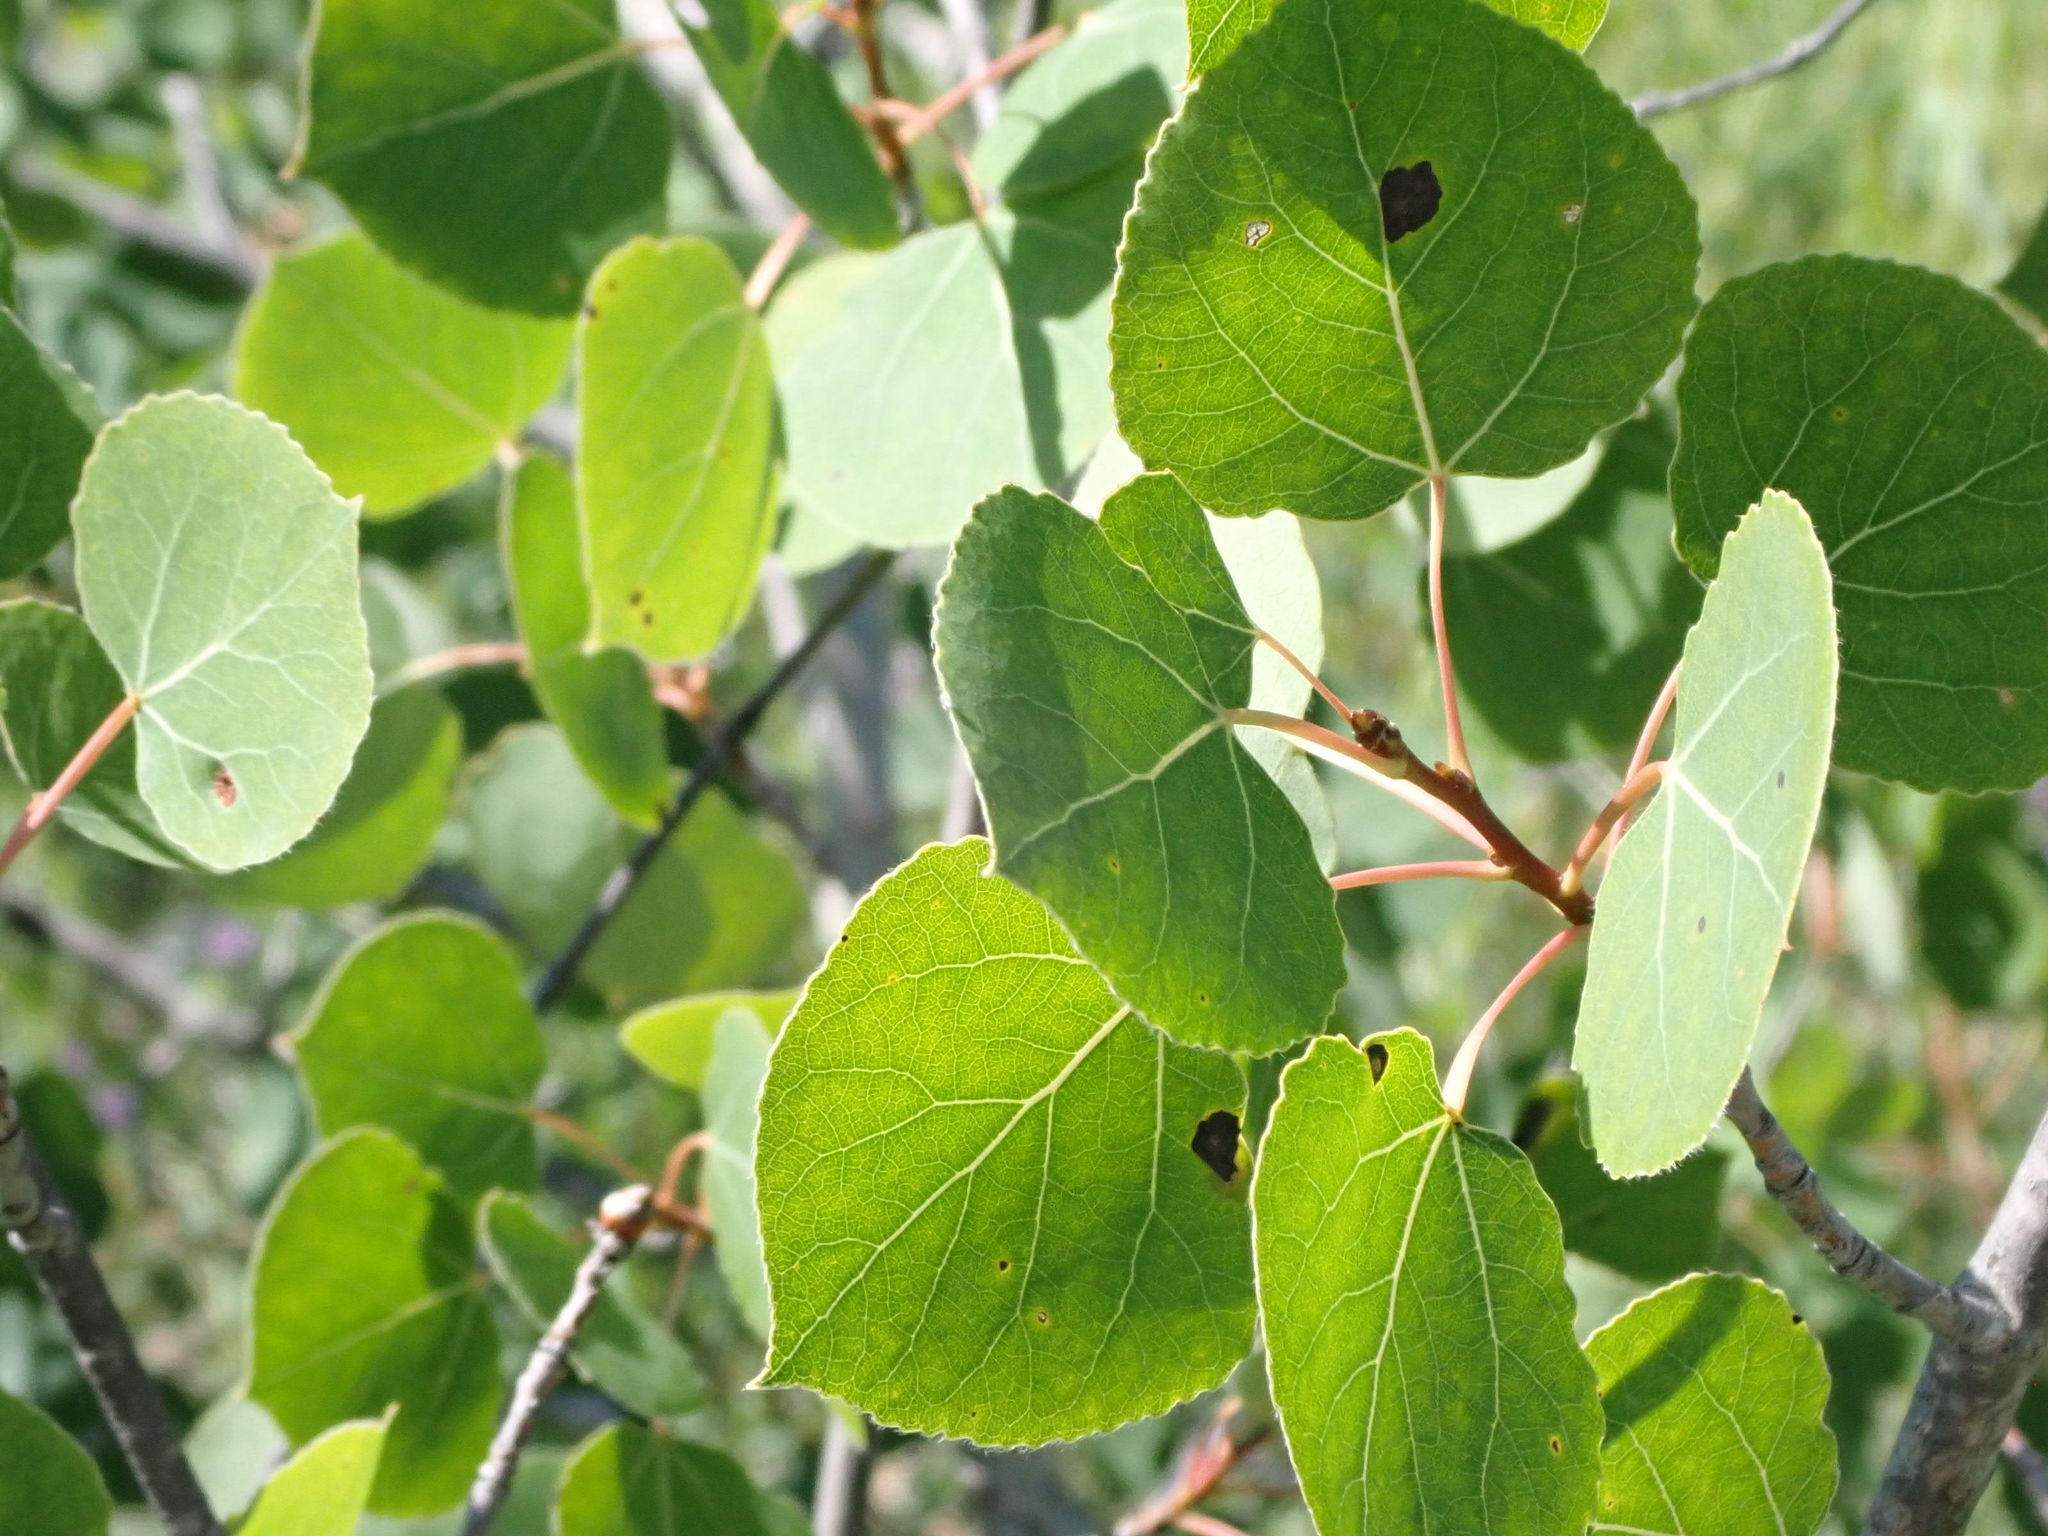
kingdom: Plantae
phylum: Tracheophyta
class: Magnoliopsida
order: Malpighiales
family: Salicaceae
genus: Populus
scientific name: Populus tremuloides
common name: Quaking aspen
